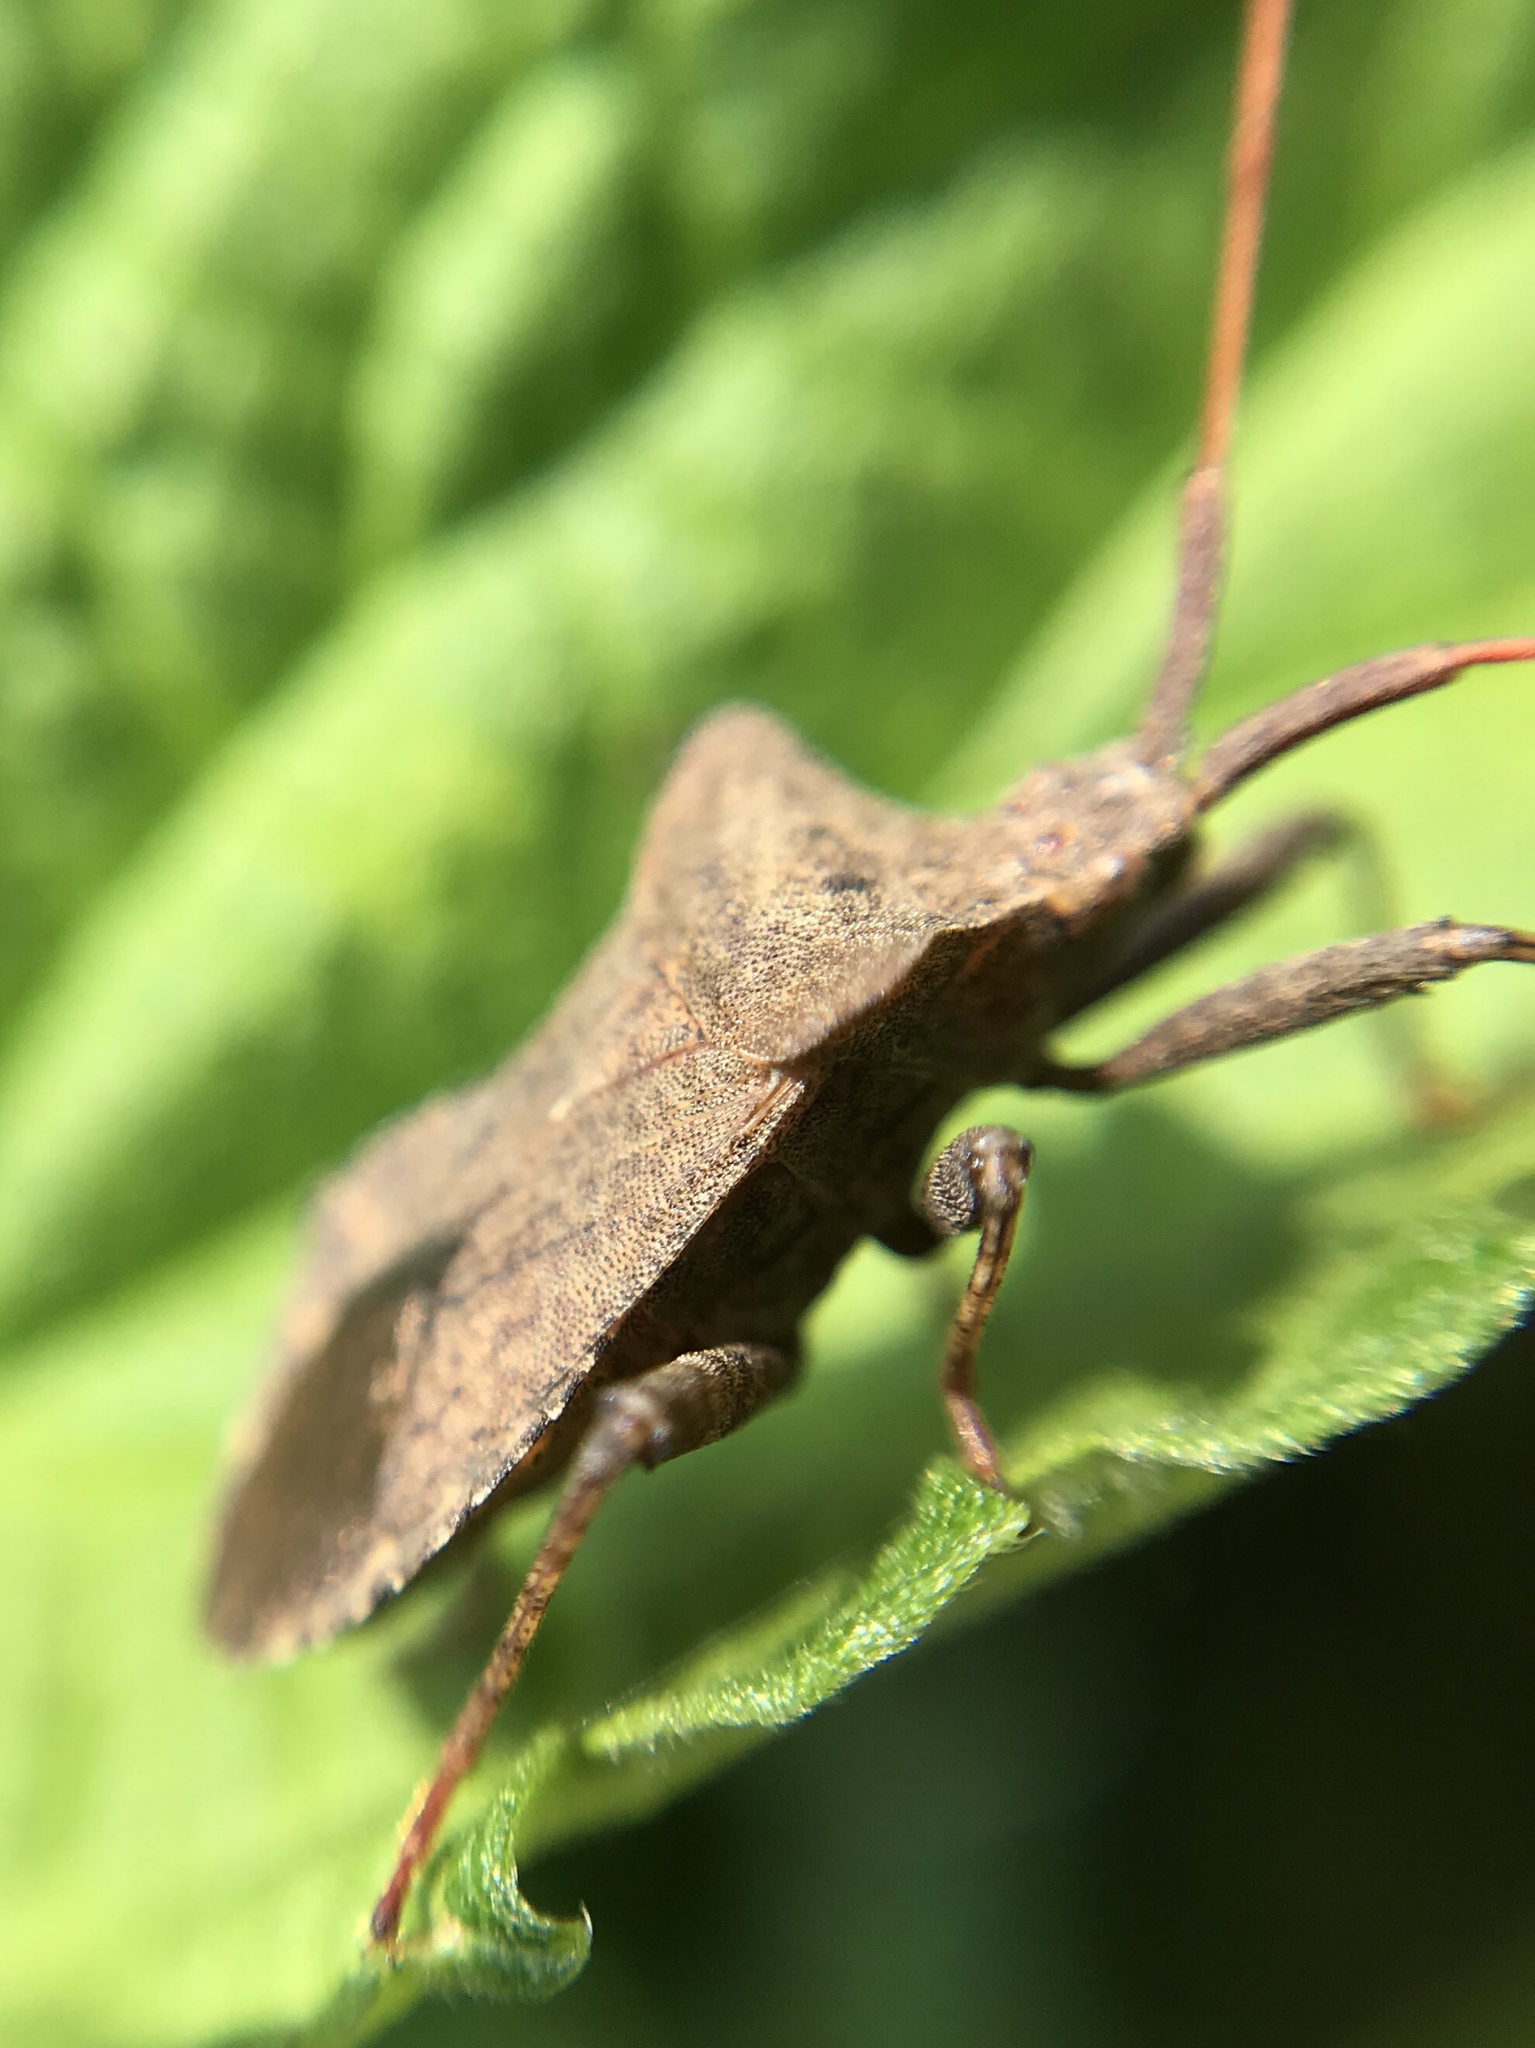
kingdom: Animalia
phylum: Arthropoda
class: Insecta
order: Hemiptera
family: Coreidae
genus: Coreus
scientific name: Coreus marginatus
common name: Dock bug
